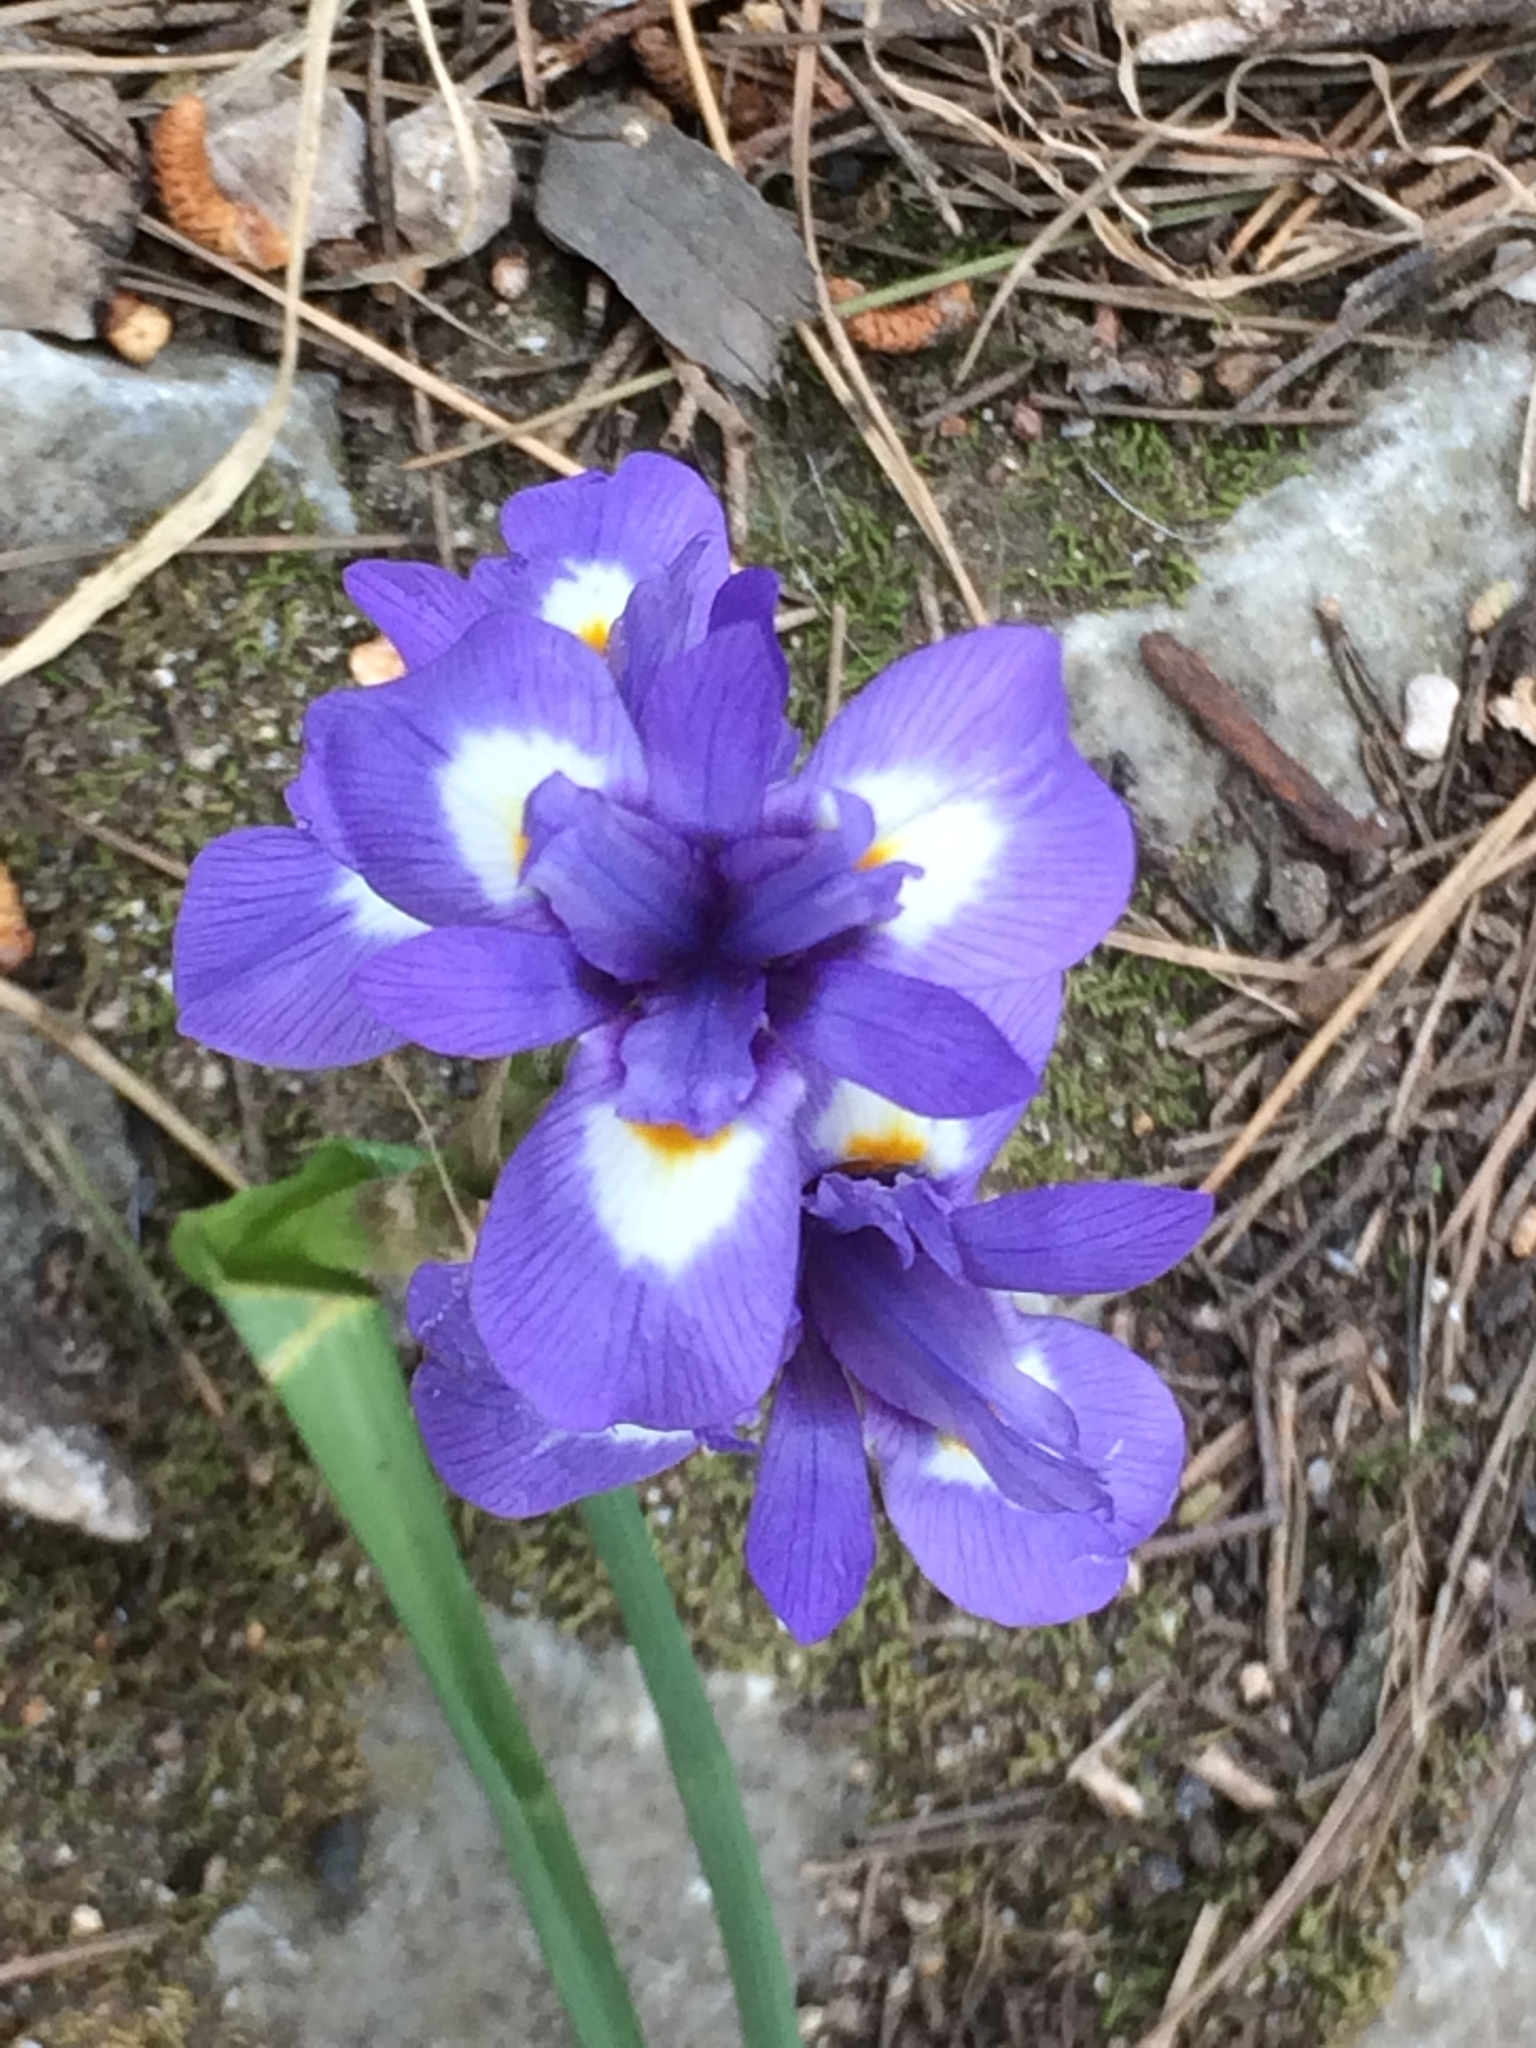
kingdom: Plantae
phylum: Tracheophyta
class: Liliopsida
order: Asparagales
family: Iridaceae
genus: Moraea
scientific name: Moraea sisyrinchium
